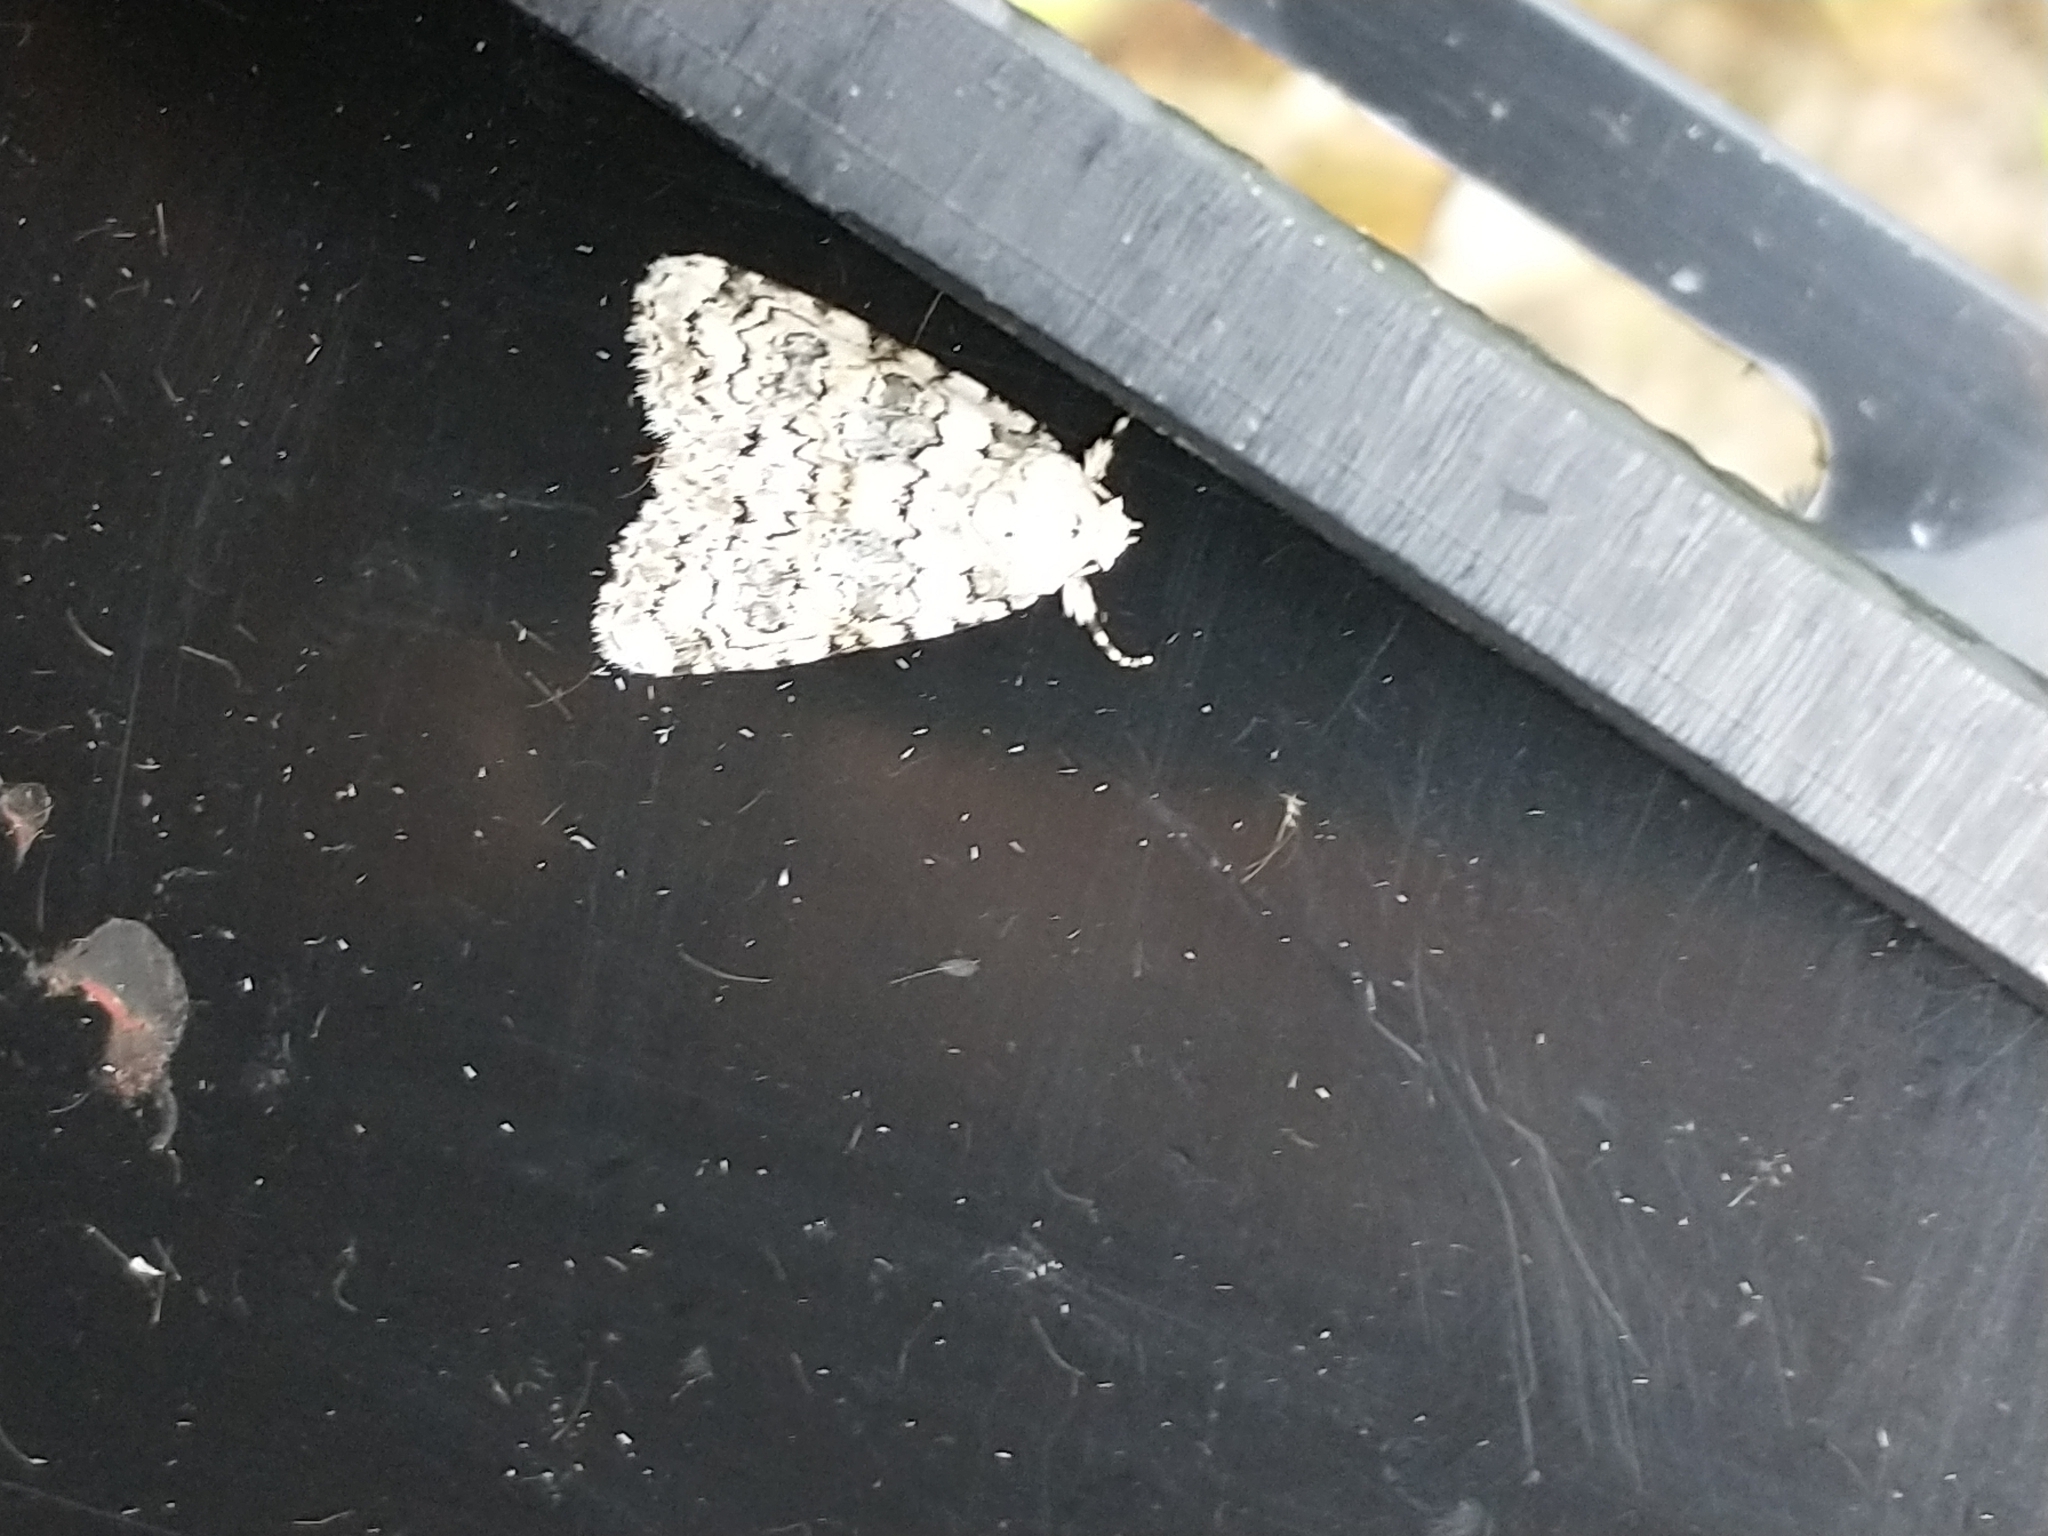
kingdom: Animalia
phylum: Arthropoda
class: Insecta
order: Lepidoptera
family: Noctuidae
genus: Bryophila
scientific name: Bryophila domestica
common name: Marbled beauty
